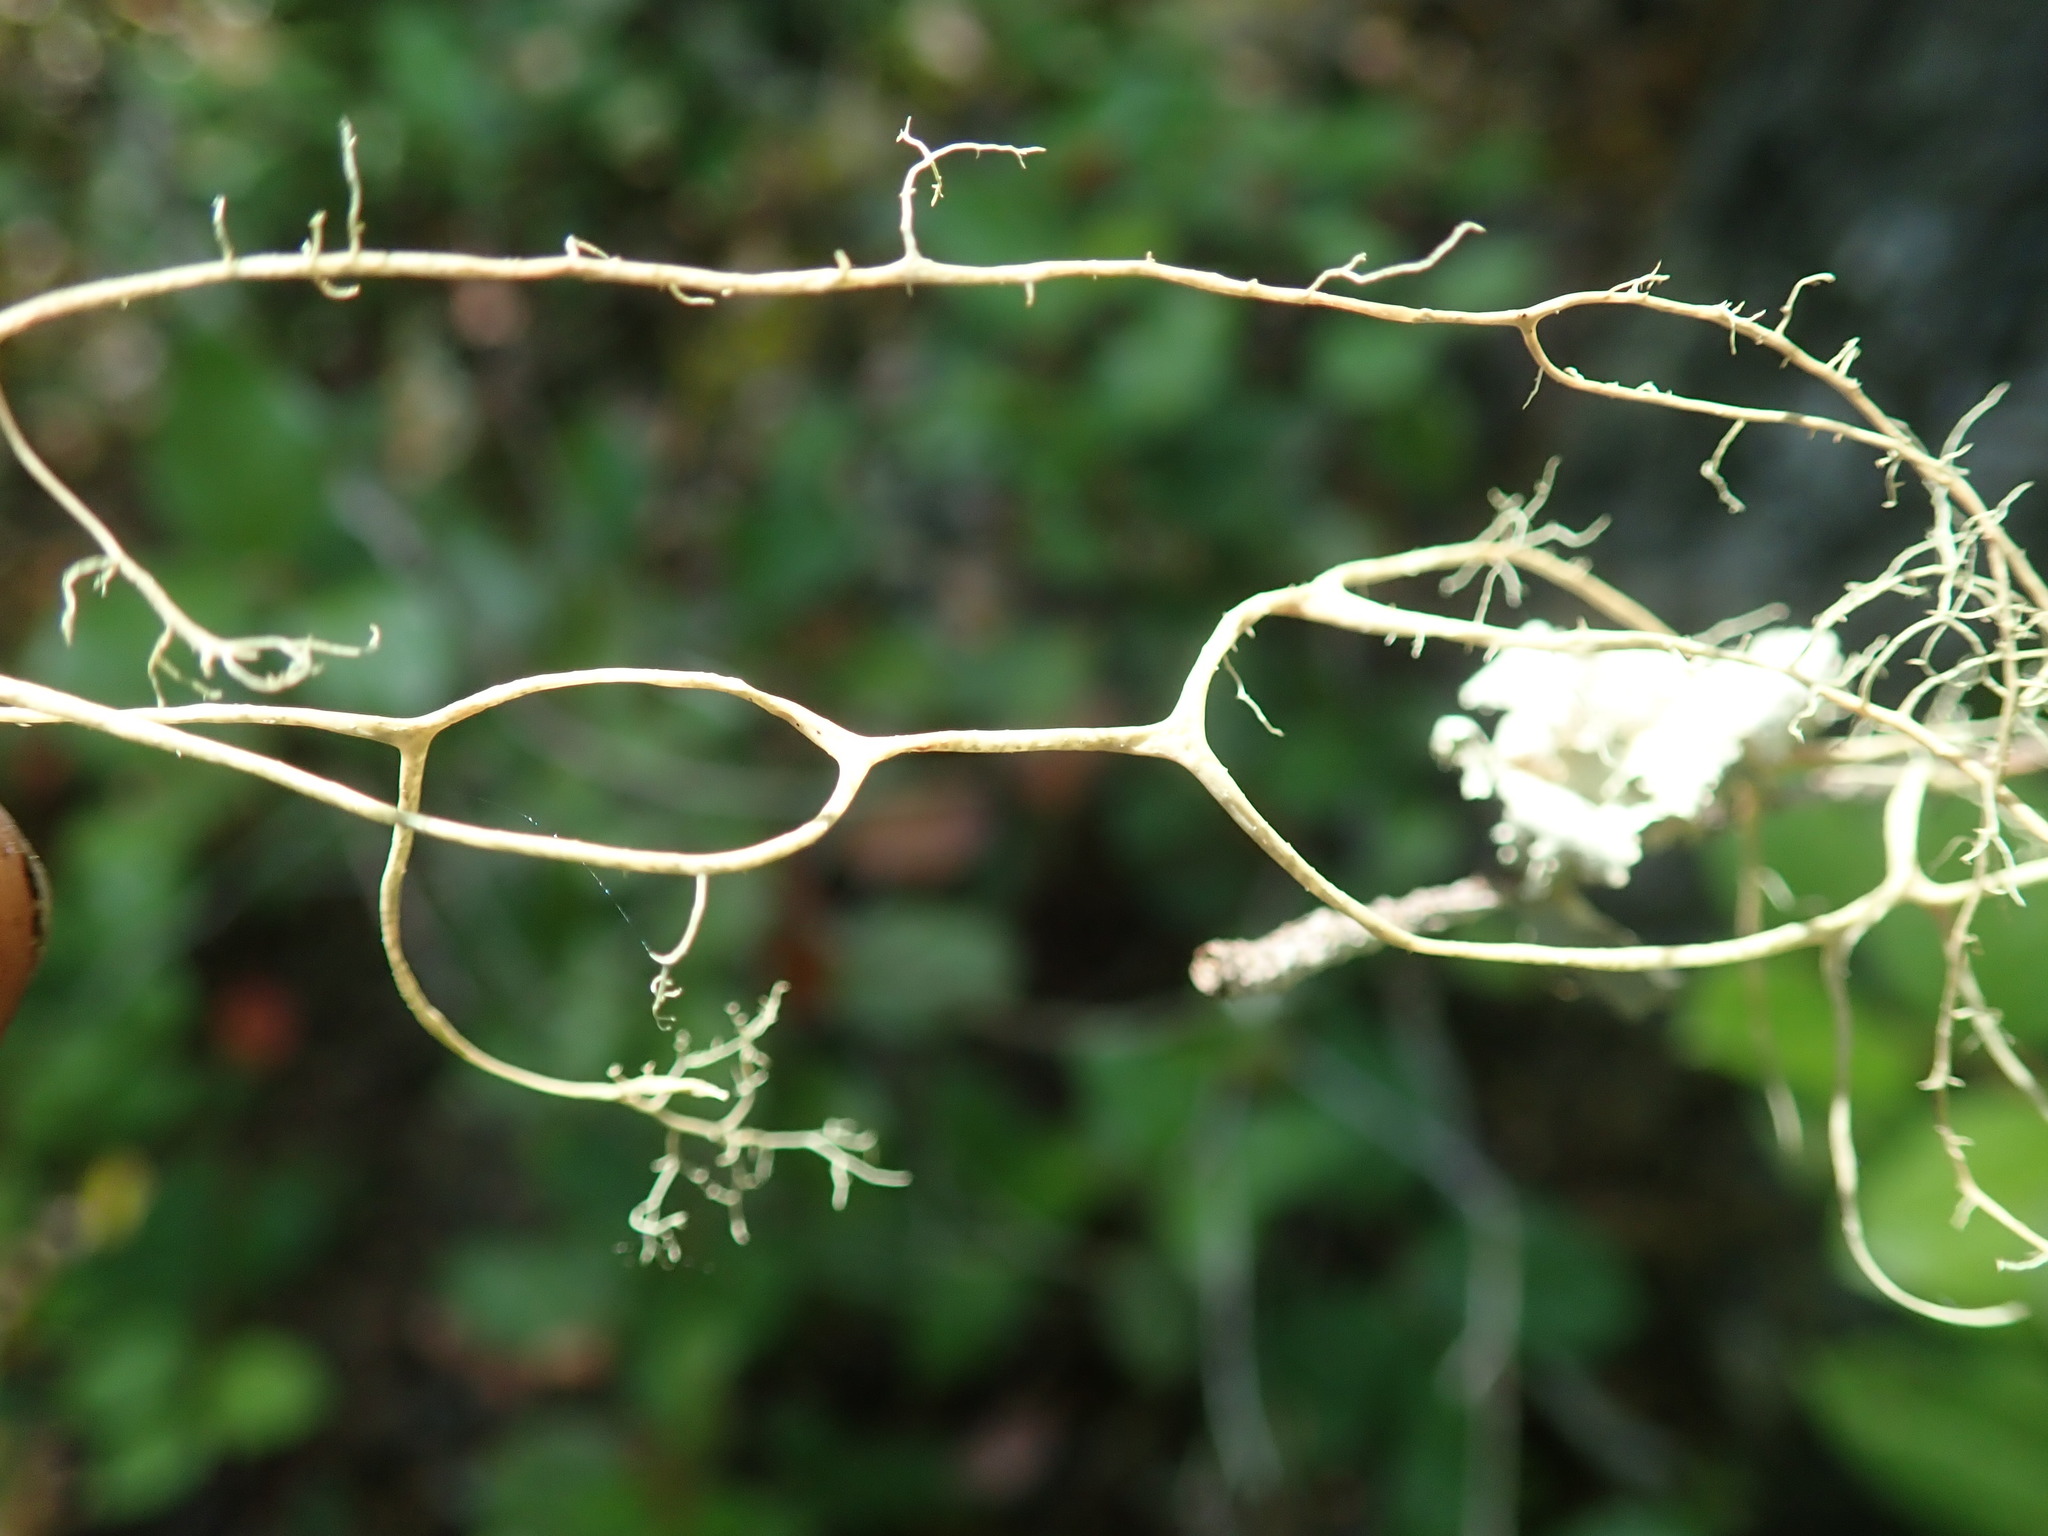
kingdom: Fungi
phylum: Ascomycota
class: Lecanoromycetes
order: Lecanorales
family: Parmeliaceae
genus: Alectoria
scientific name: Alectoria sarmentosa
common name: Witch's hair
